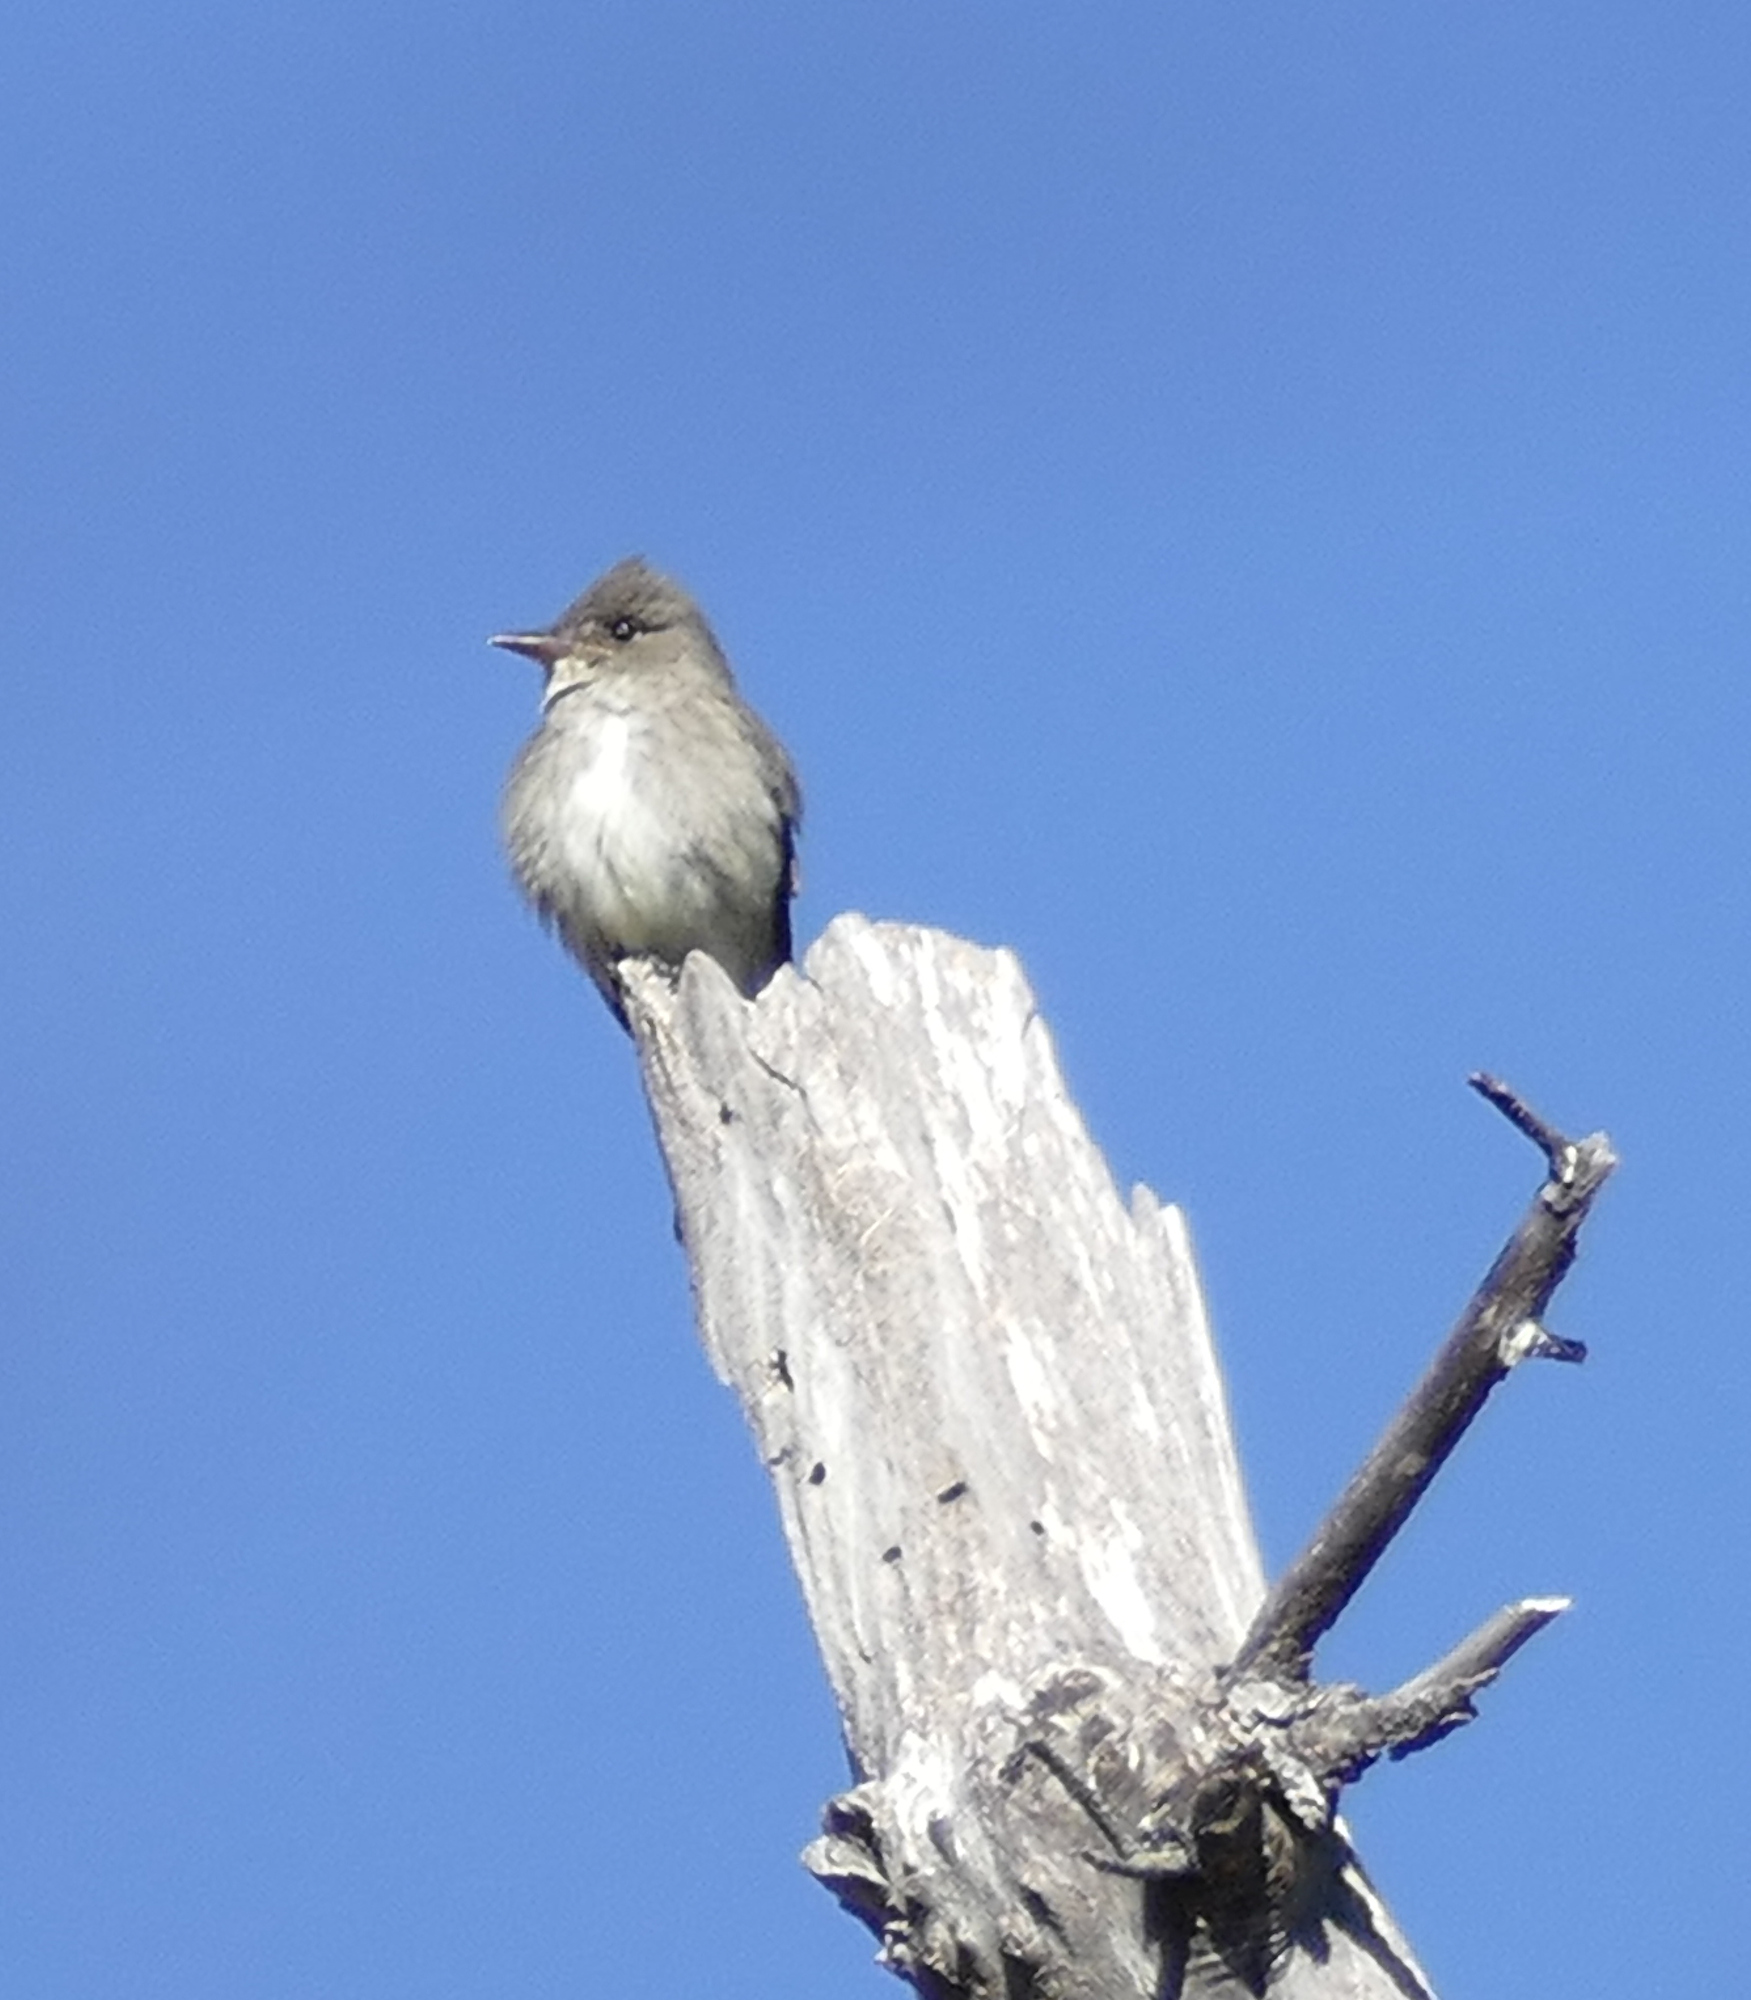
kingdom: Animalia
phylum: Chordata
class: Aves
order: Passeriformes
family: Tyrannidae
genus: Contopus
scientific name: Contopus cooperi
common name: Olive-sided flycatcher
